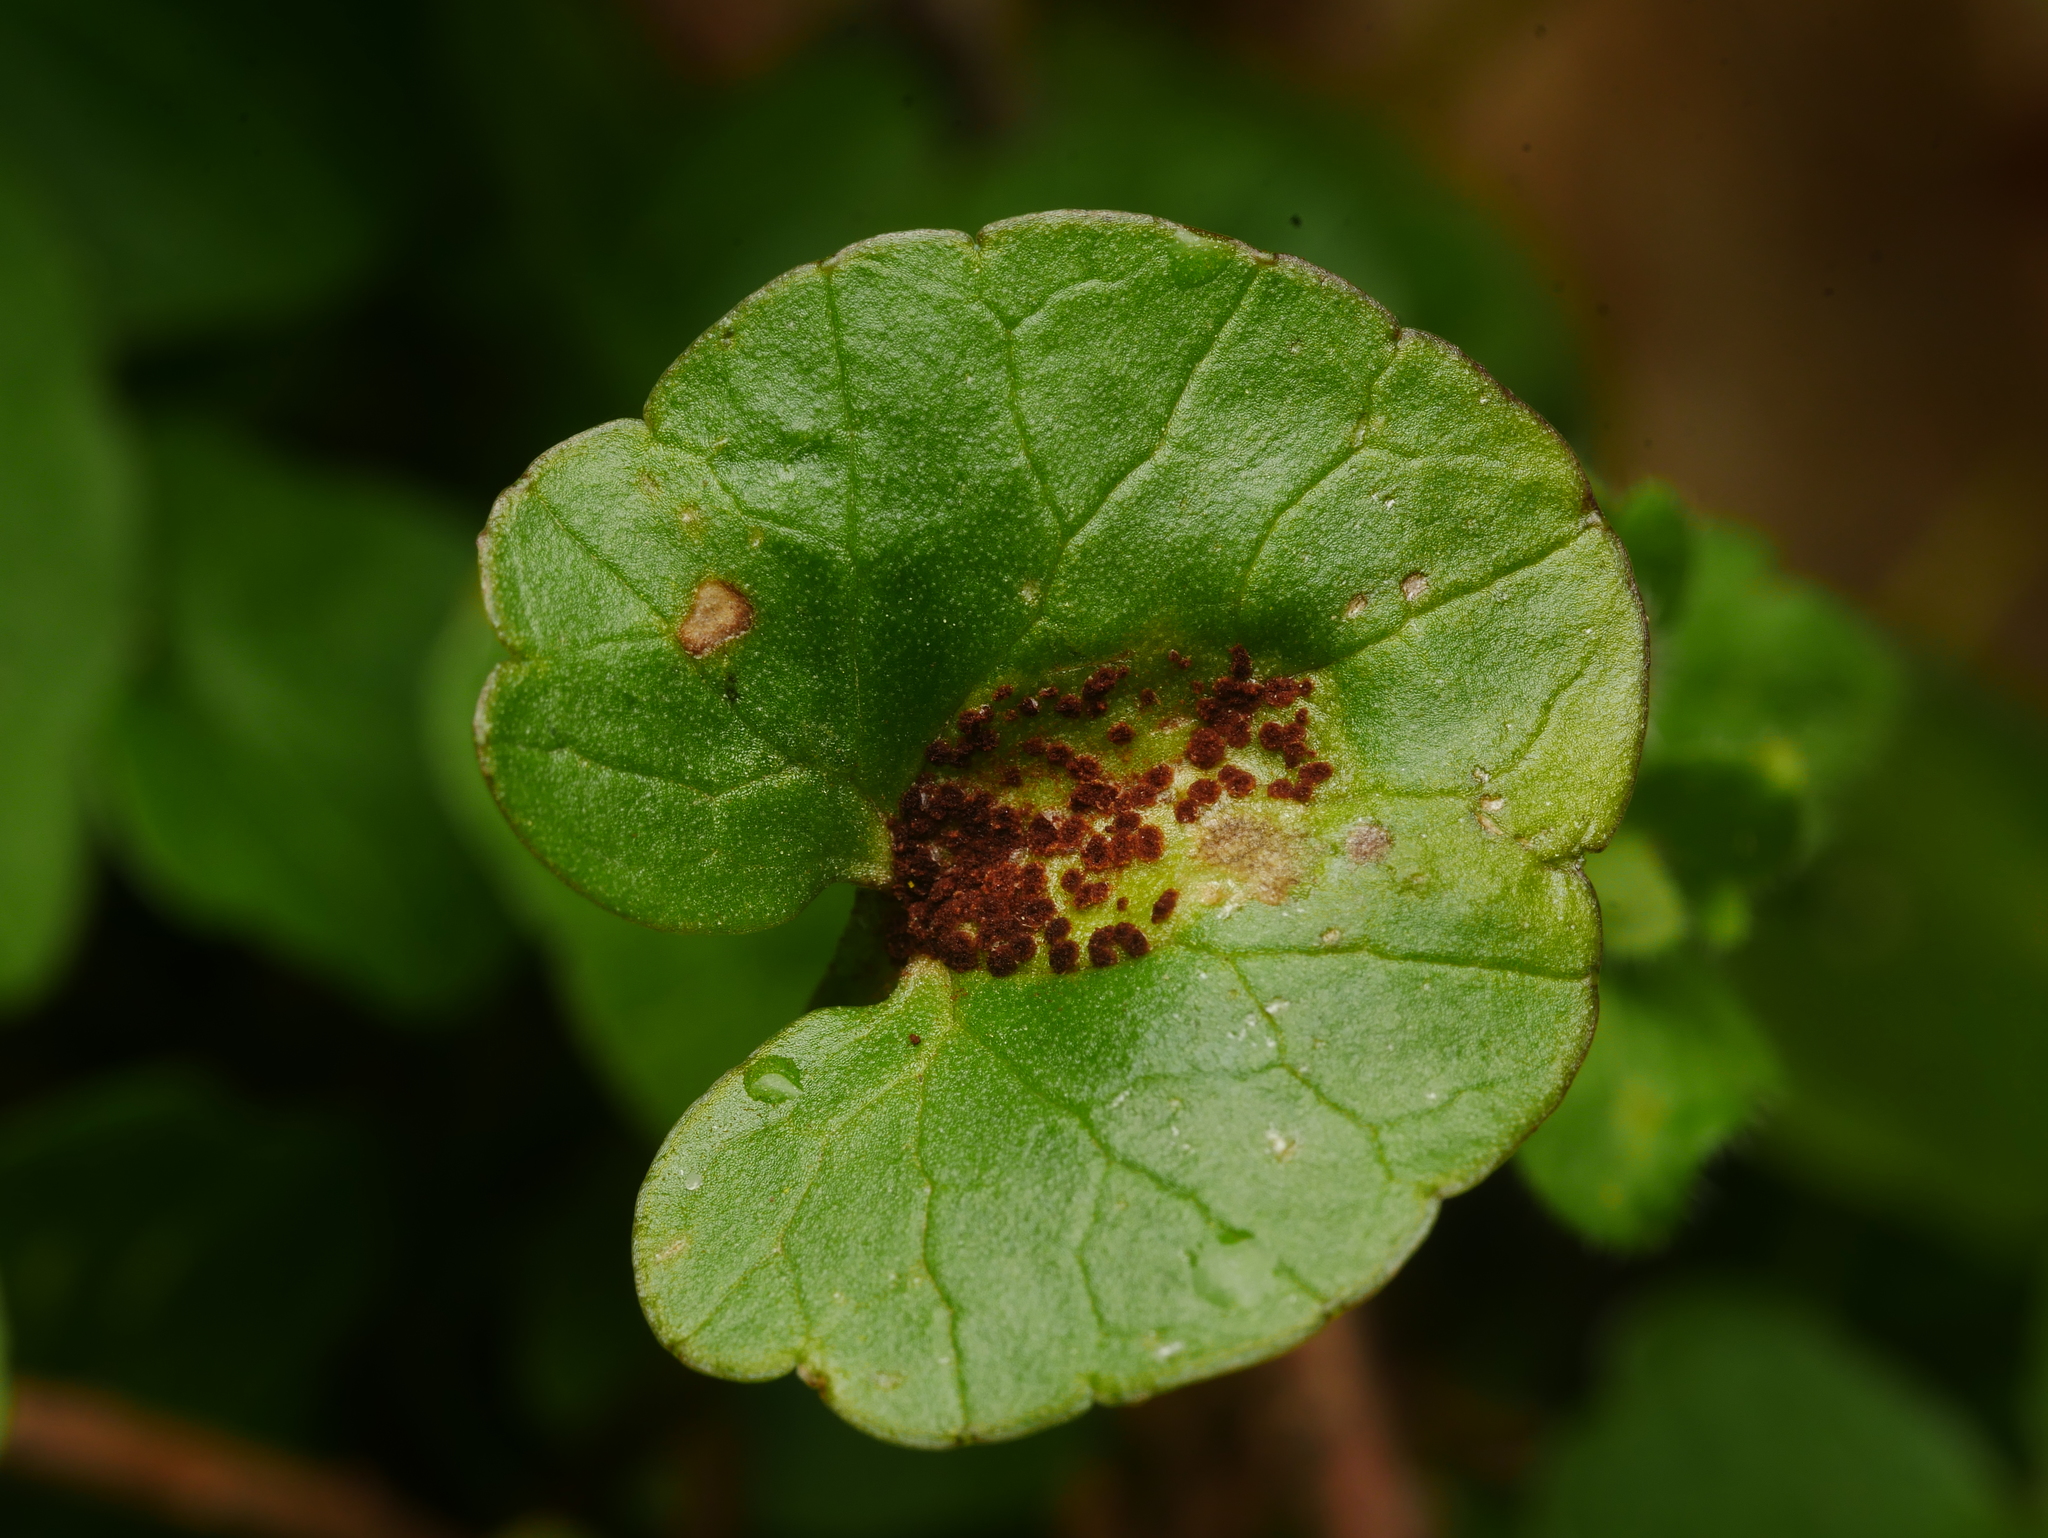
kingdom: Fungi
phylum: Basidiomycota
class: Pucciniomycetes
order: Pucciniales
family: Pucciniaceae
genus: Uromyces
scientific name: Uromyces ficariae
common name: Bitter chocolate rust
